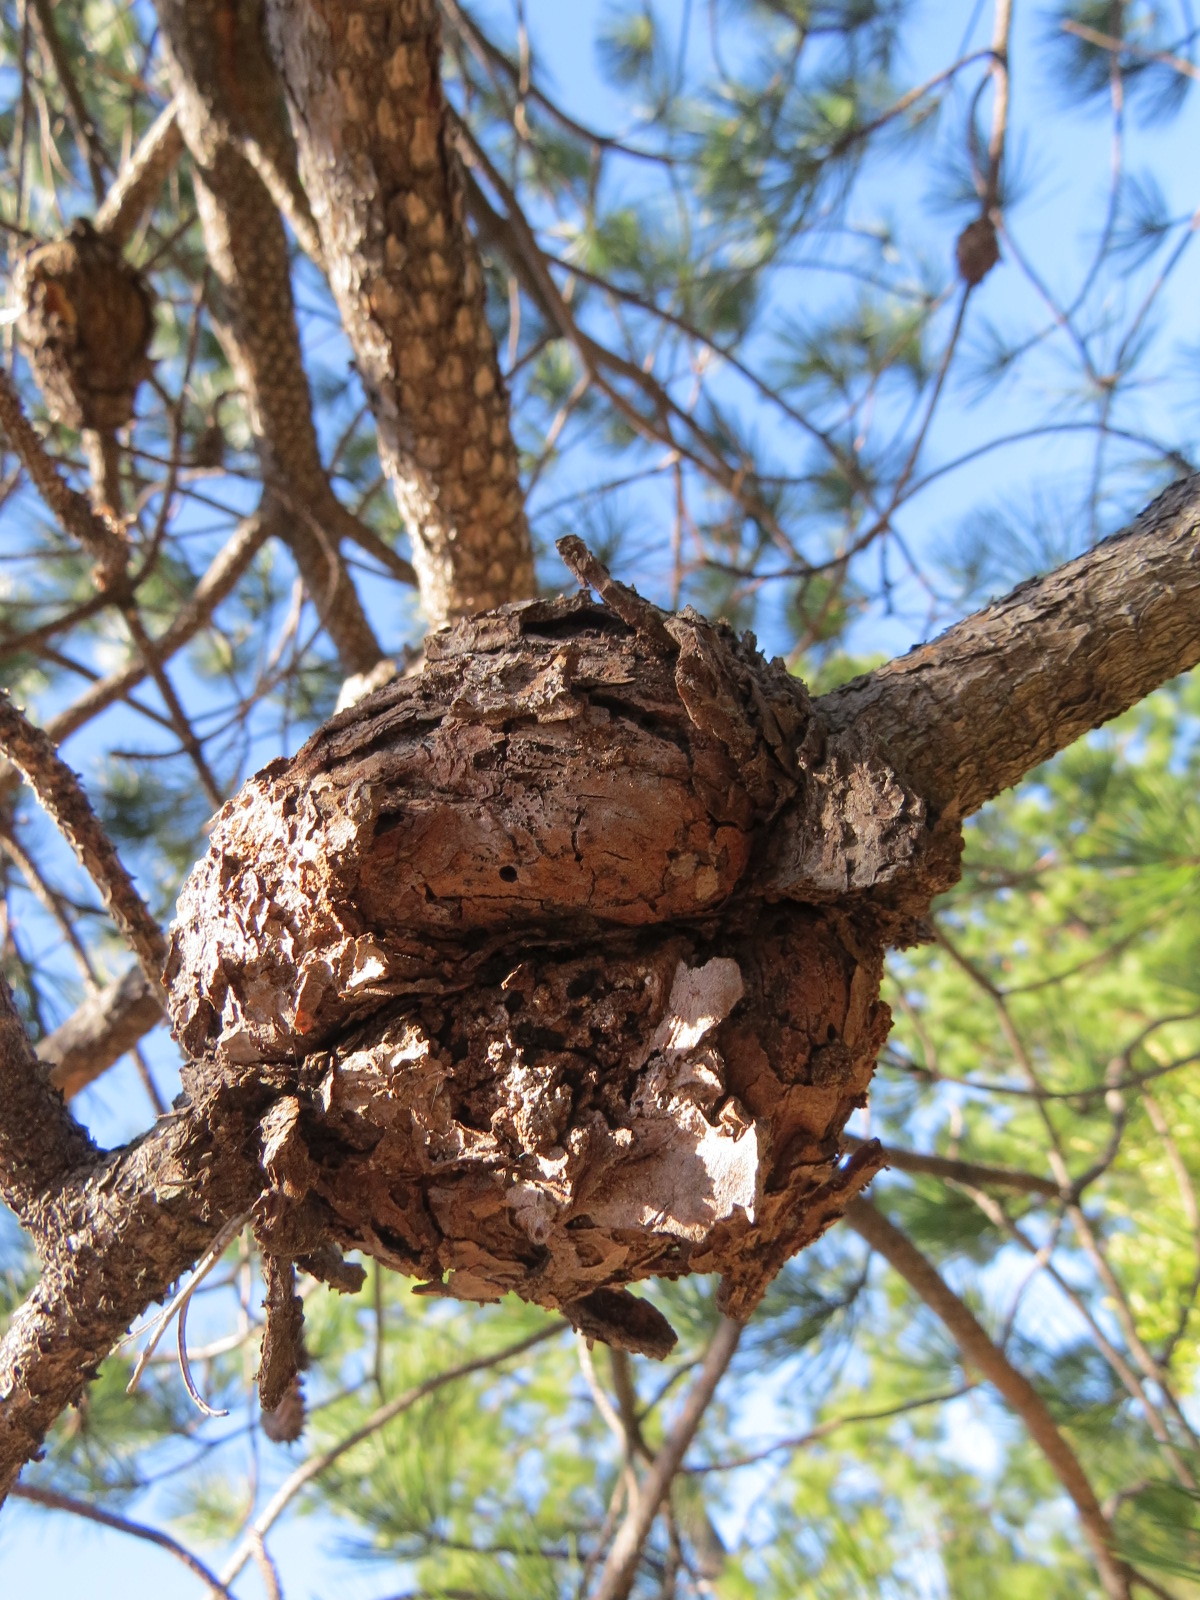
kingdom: Fungi
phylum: Basidiomycota
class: Pucciniomycetes
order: Pucciniales
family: Cronartiaceae
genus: Cronartium
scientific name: Cronartium harknessii
